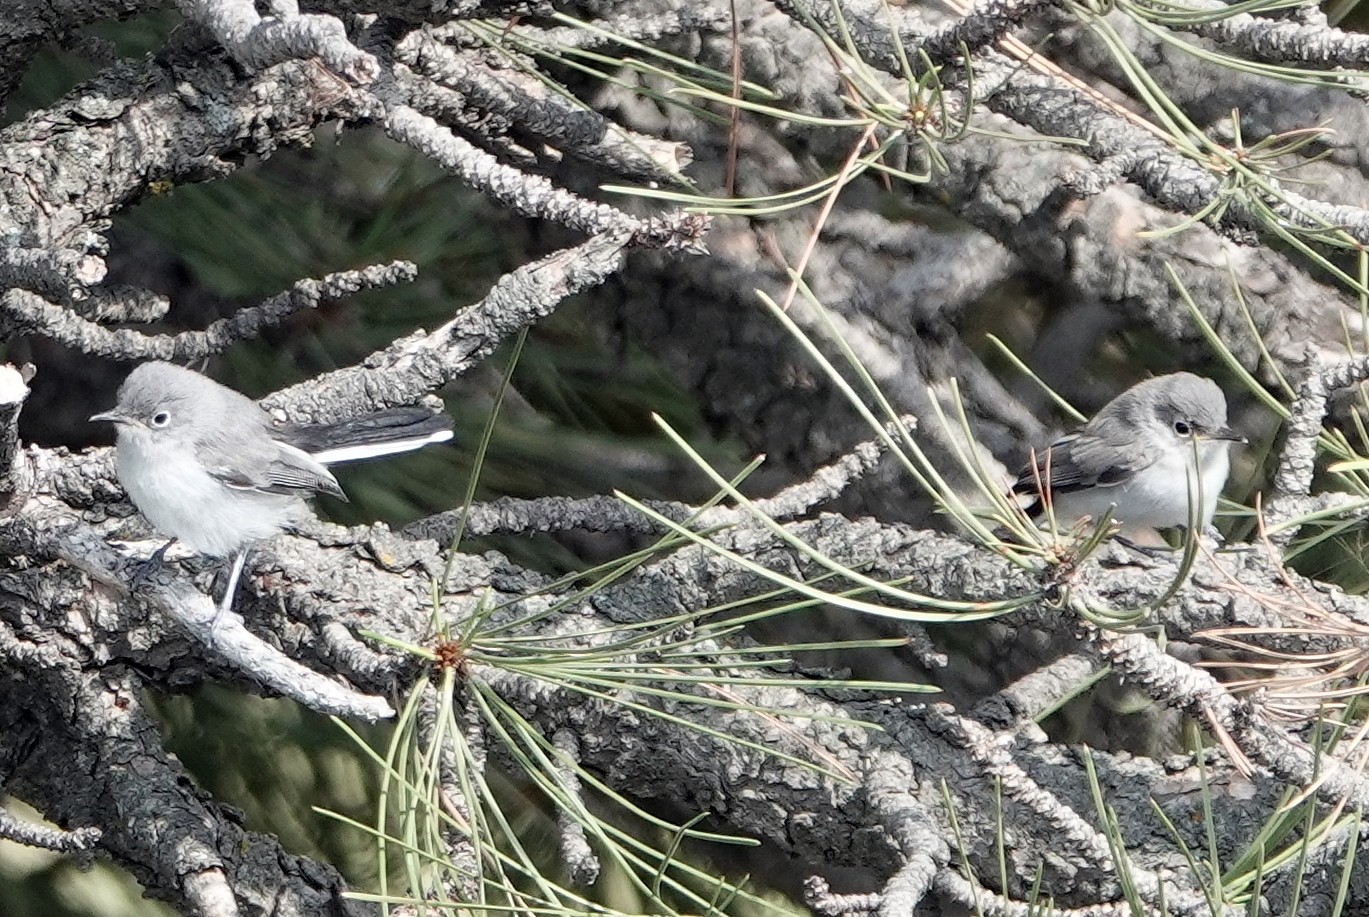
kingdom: Animalia
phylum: Chordata
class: Aves
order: Passeriformes
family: Polioptilidae
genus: Polioptila
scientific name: Polioptila caerulea
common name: Blue-gray gnatcatcher
